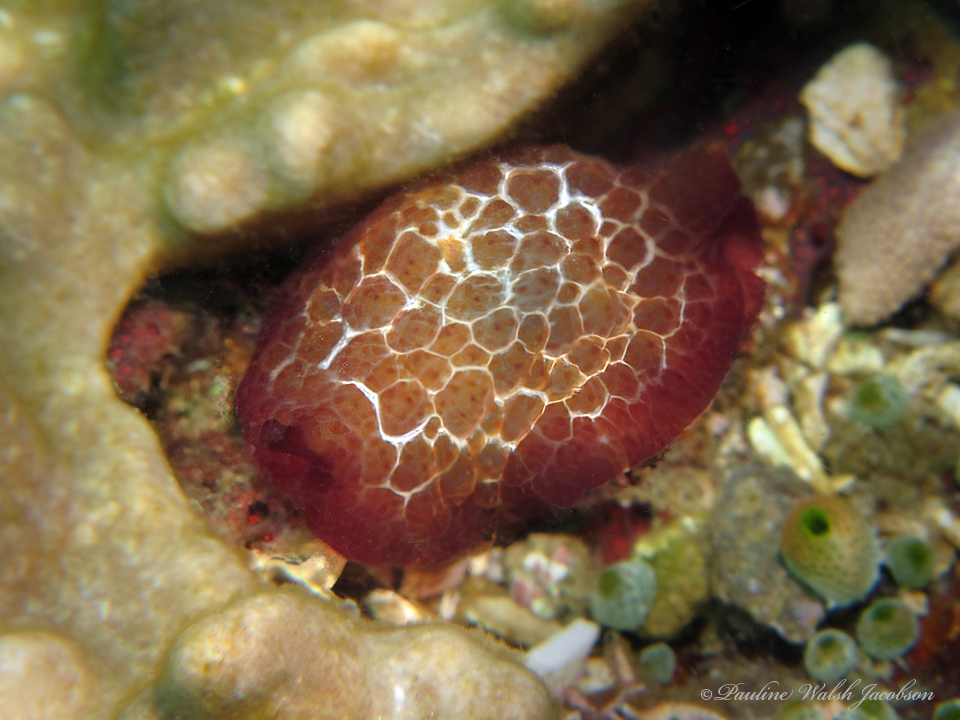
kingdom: Animalia
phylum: Mollusca
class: Gastropoda
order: Pleurobranchida
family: Pleurobranchidae
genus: Pleurobranchus
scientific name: Pleurobranchus forskalii
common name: Forskal's side-gilled sea slug
